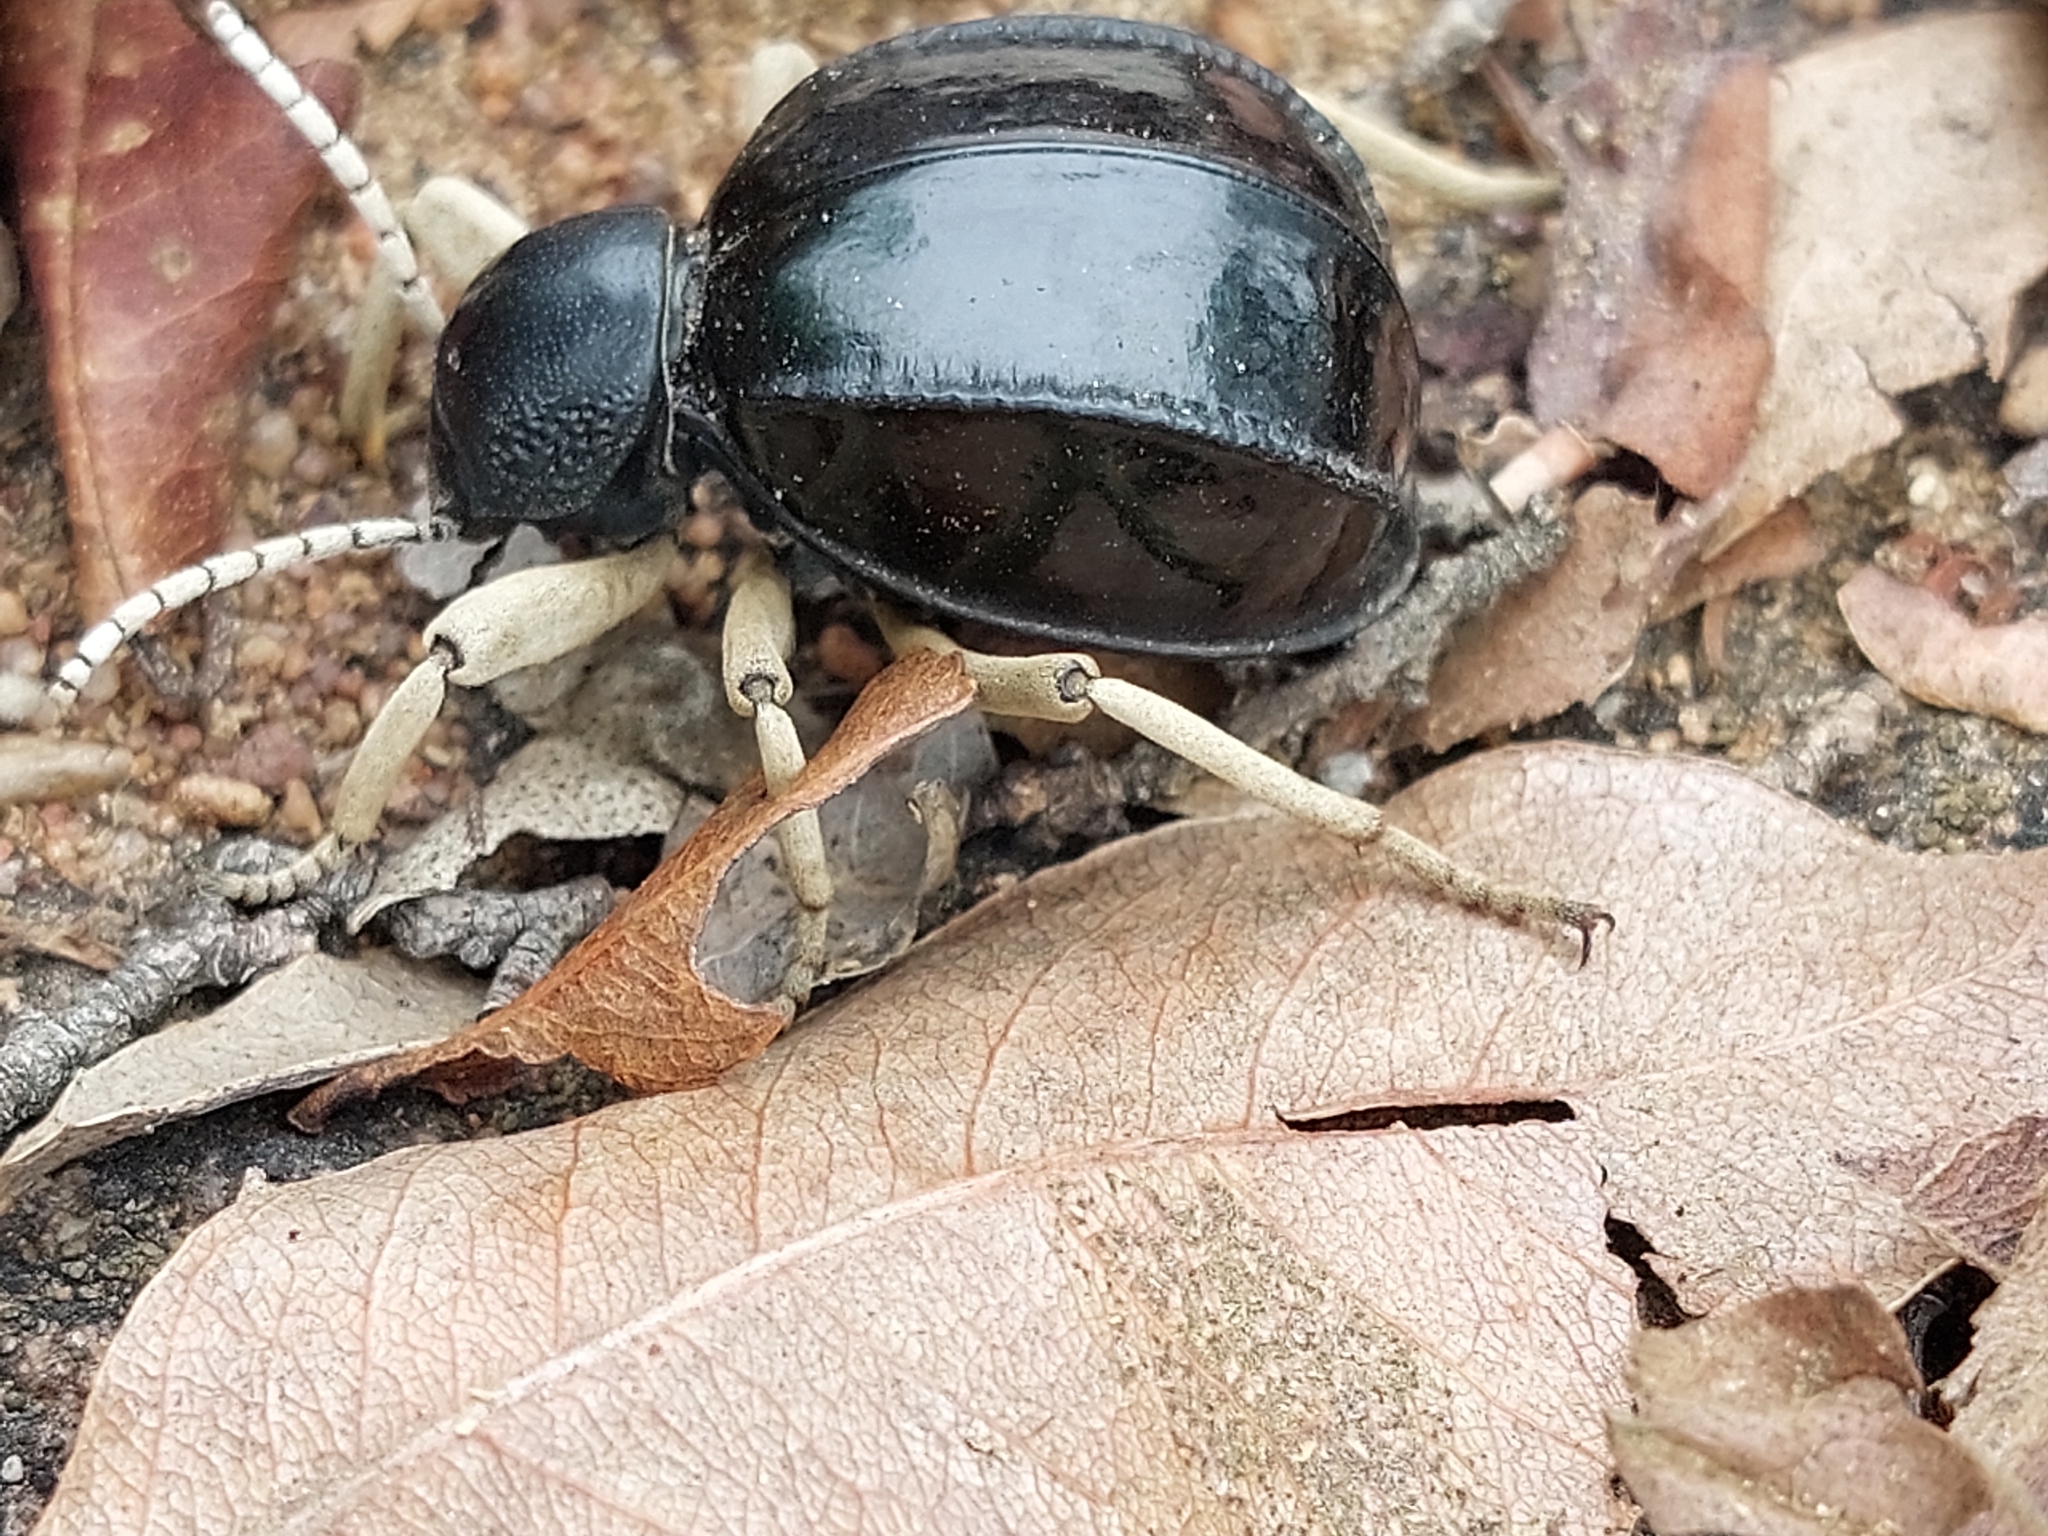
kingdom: Animalia
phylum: Arthropoda
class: Insecta
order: Coleoptera
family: Tenebrionidae
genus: Dichtha
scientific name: Dichtha cubica
